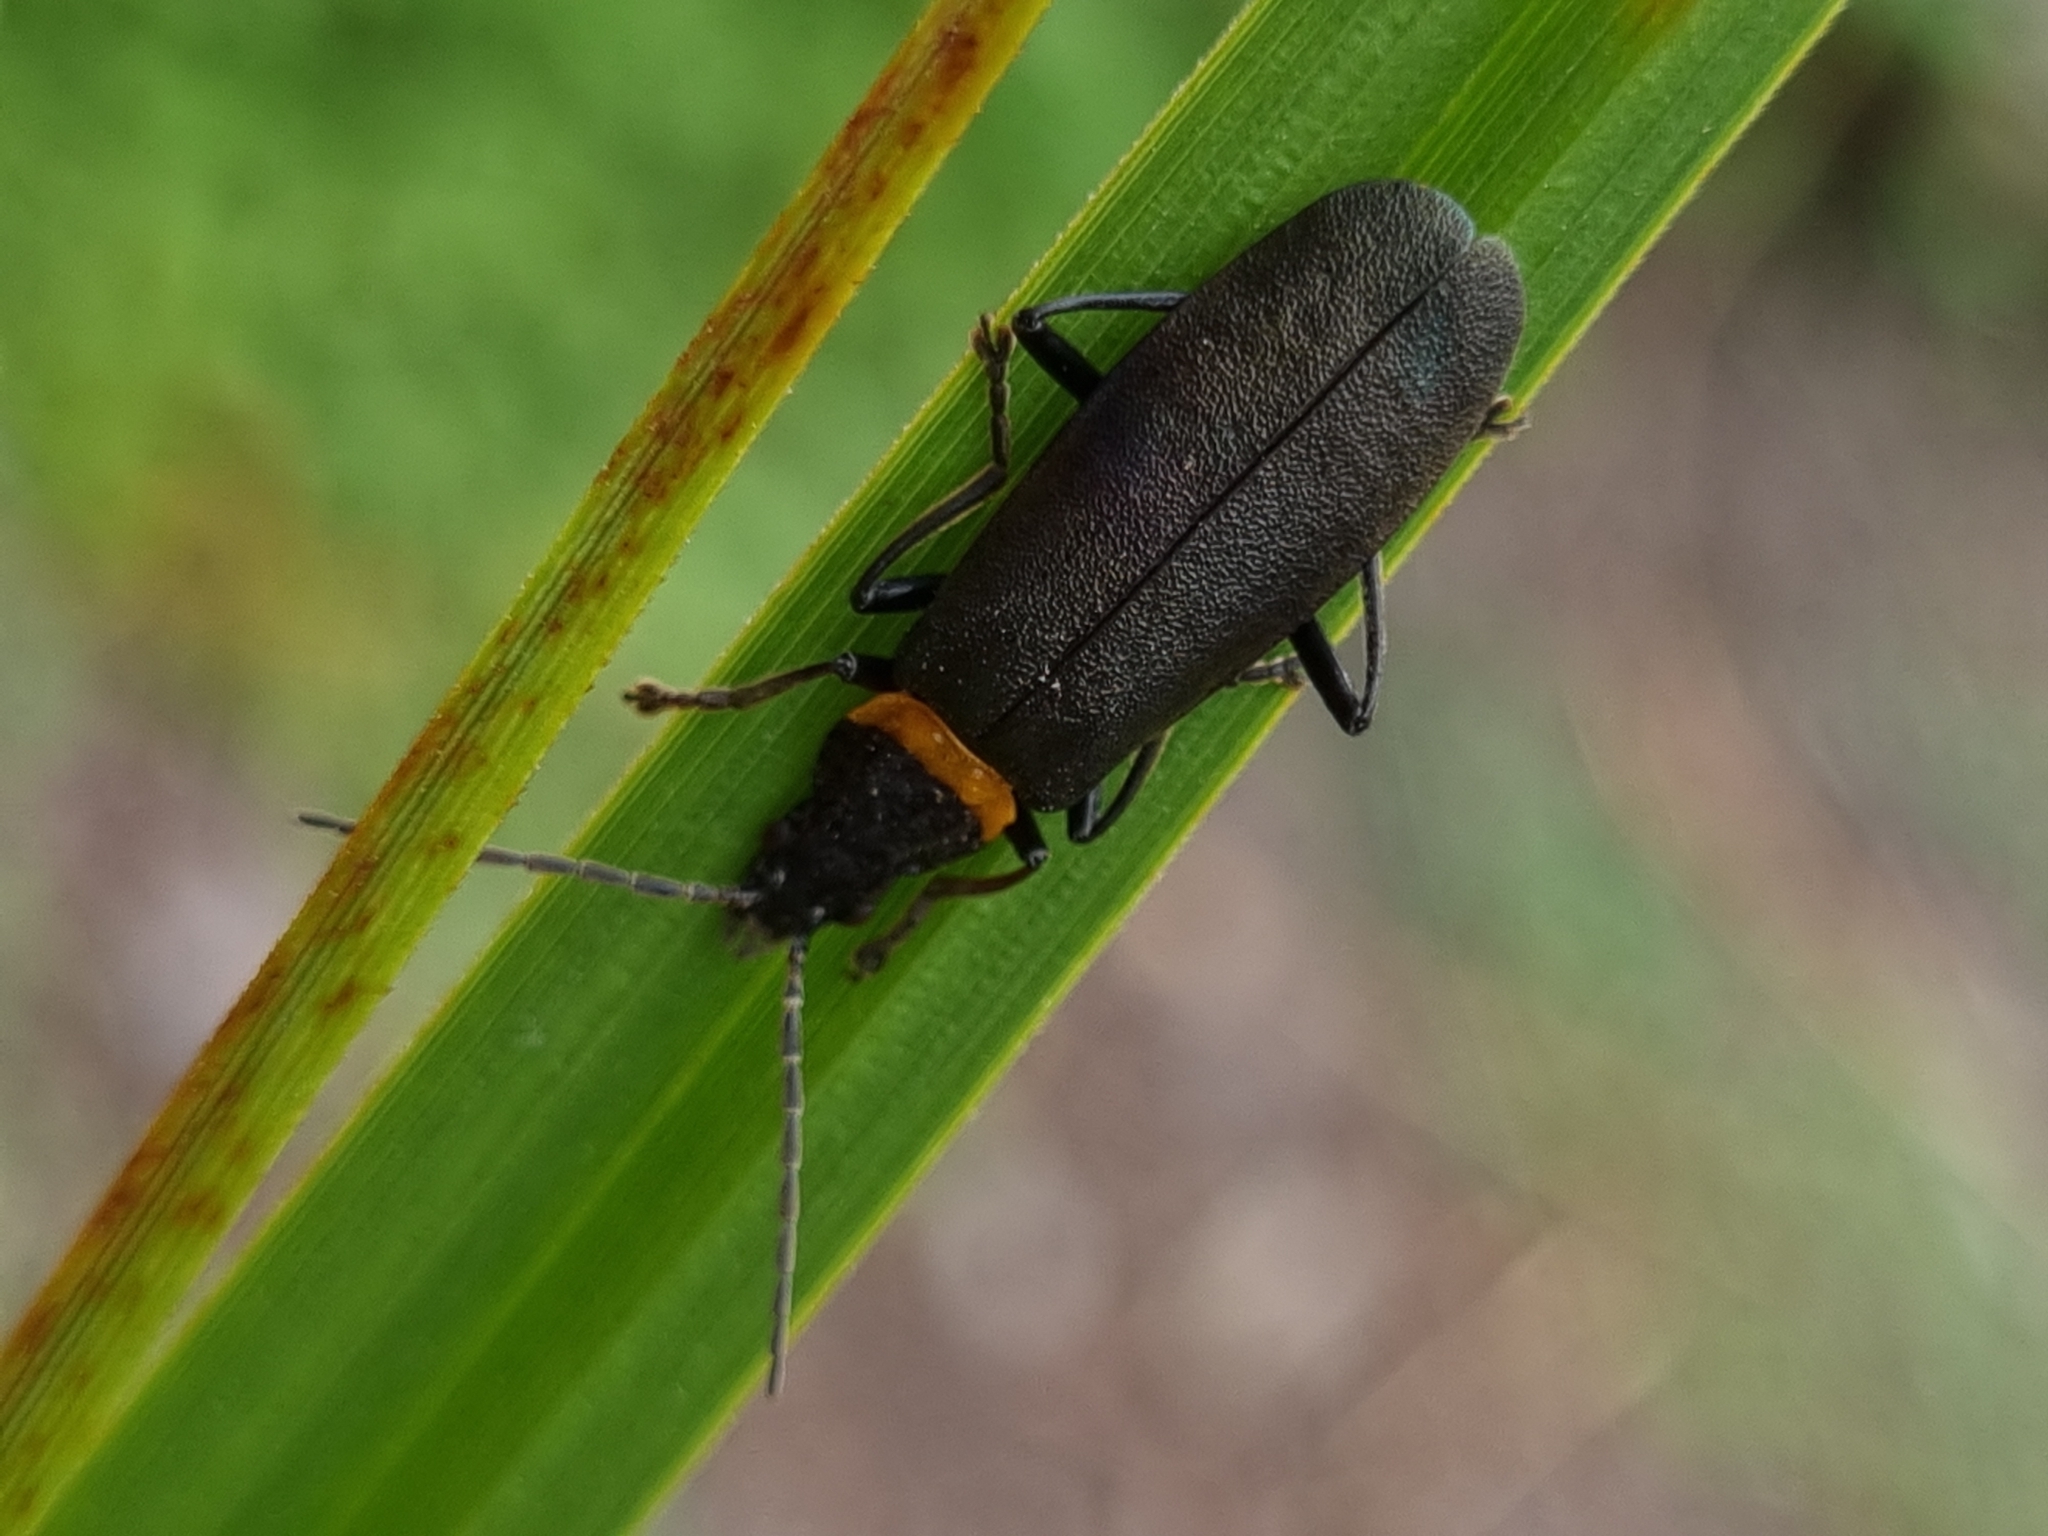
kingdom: Animalia
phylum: Arthropoda
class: Insecta
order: Coleoptera
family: Cantharidae
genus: Chauliognathus
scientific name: Chauliognathus
